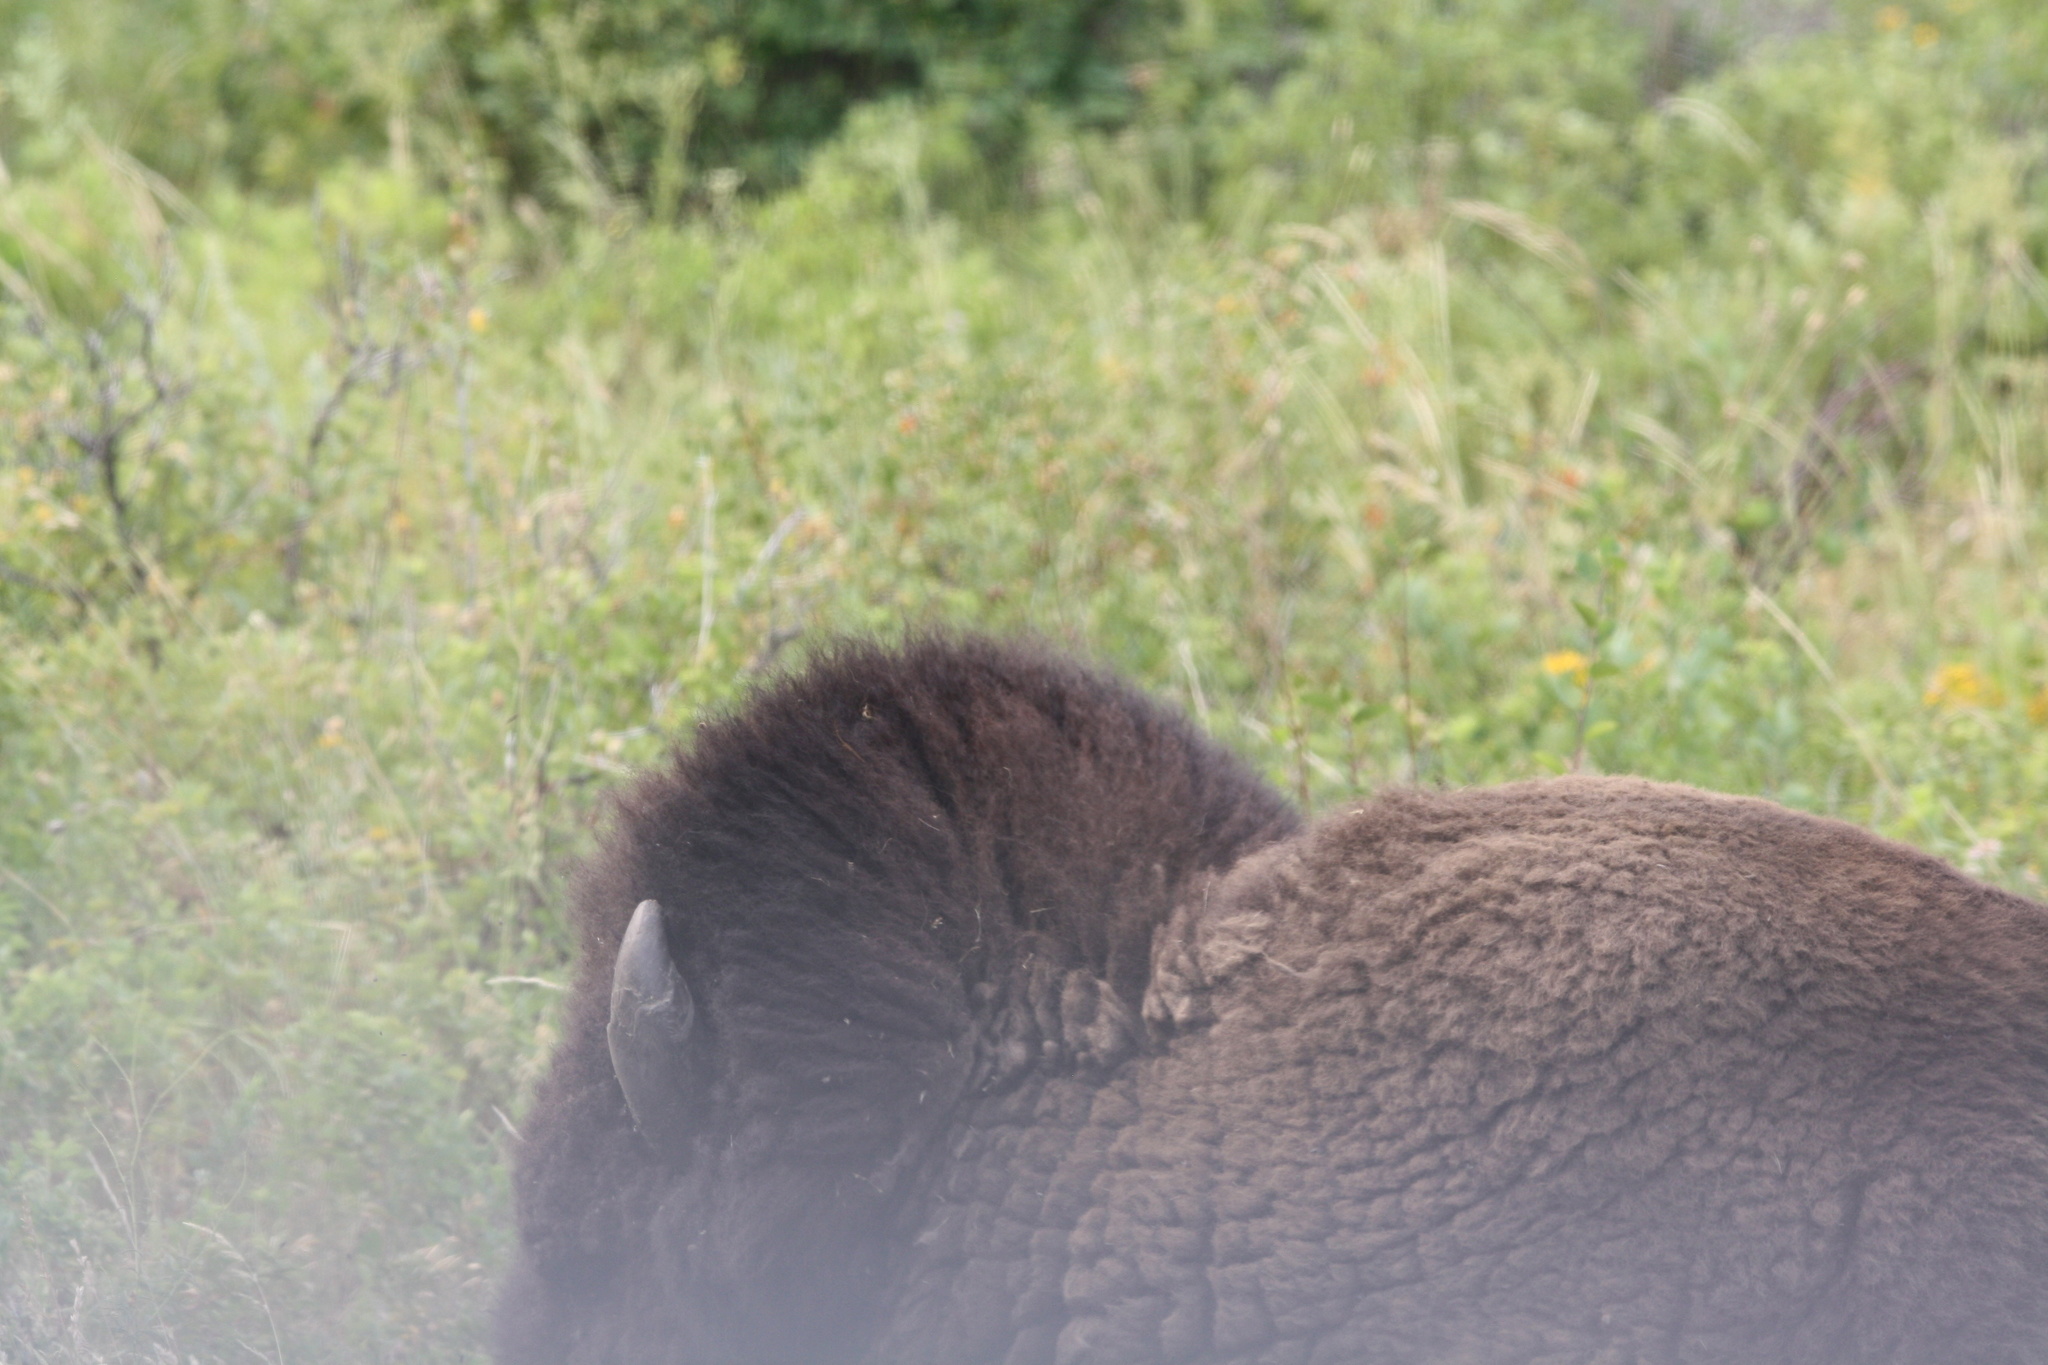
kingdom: Animalia
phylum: Chordata
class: Mammalia
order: Artiodactyla
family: Bovidae
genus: Bison
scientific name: Bison bison
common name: American bison
